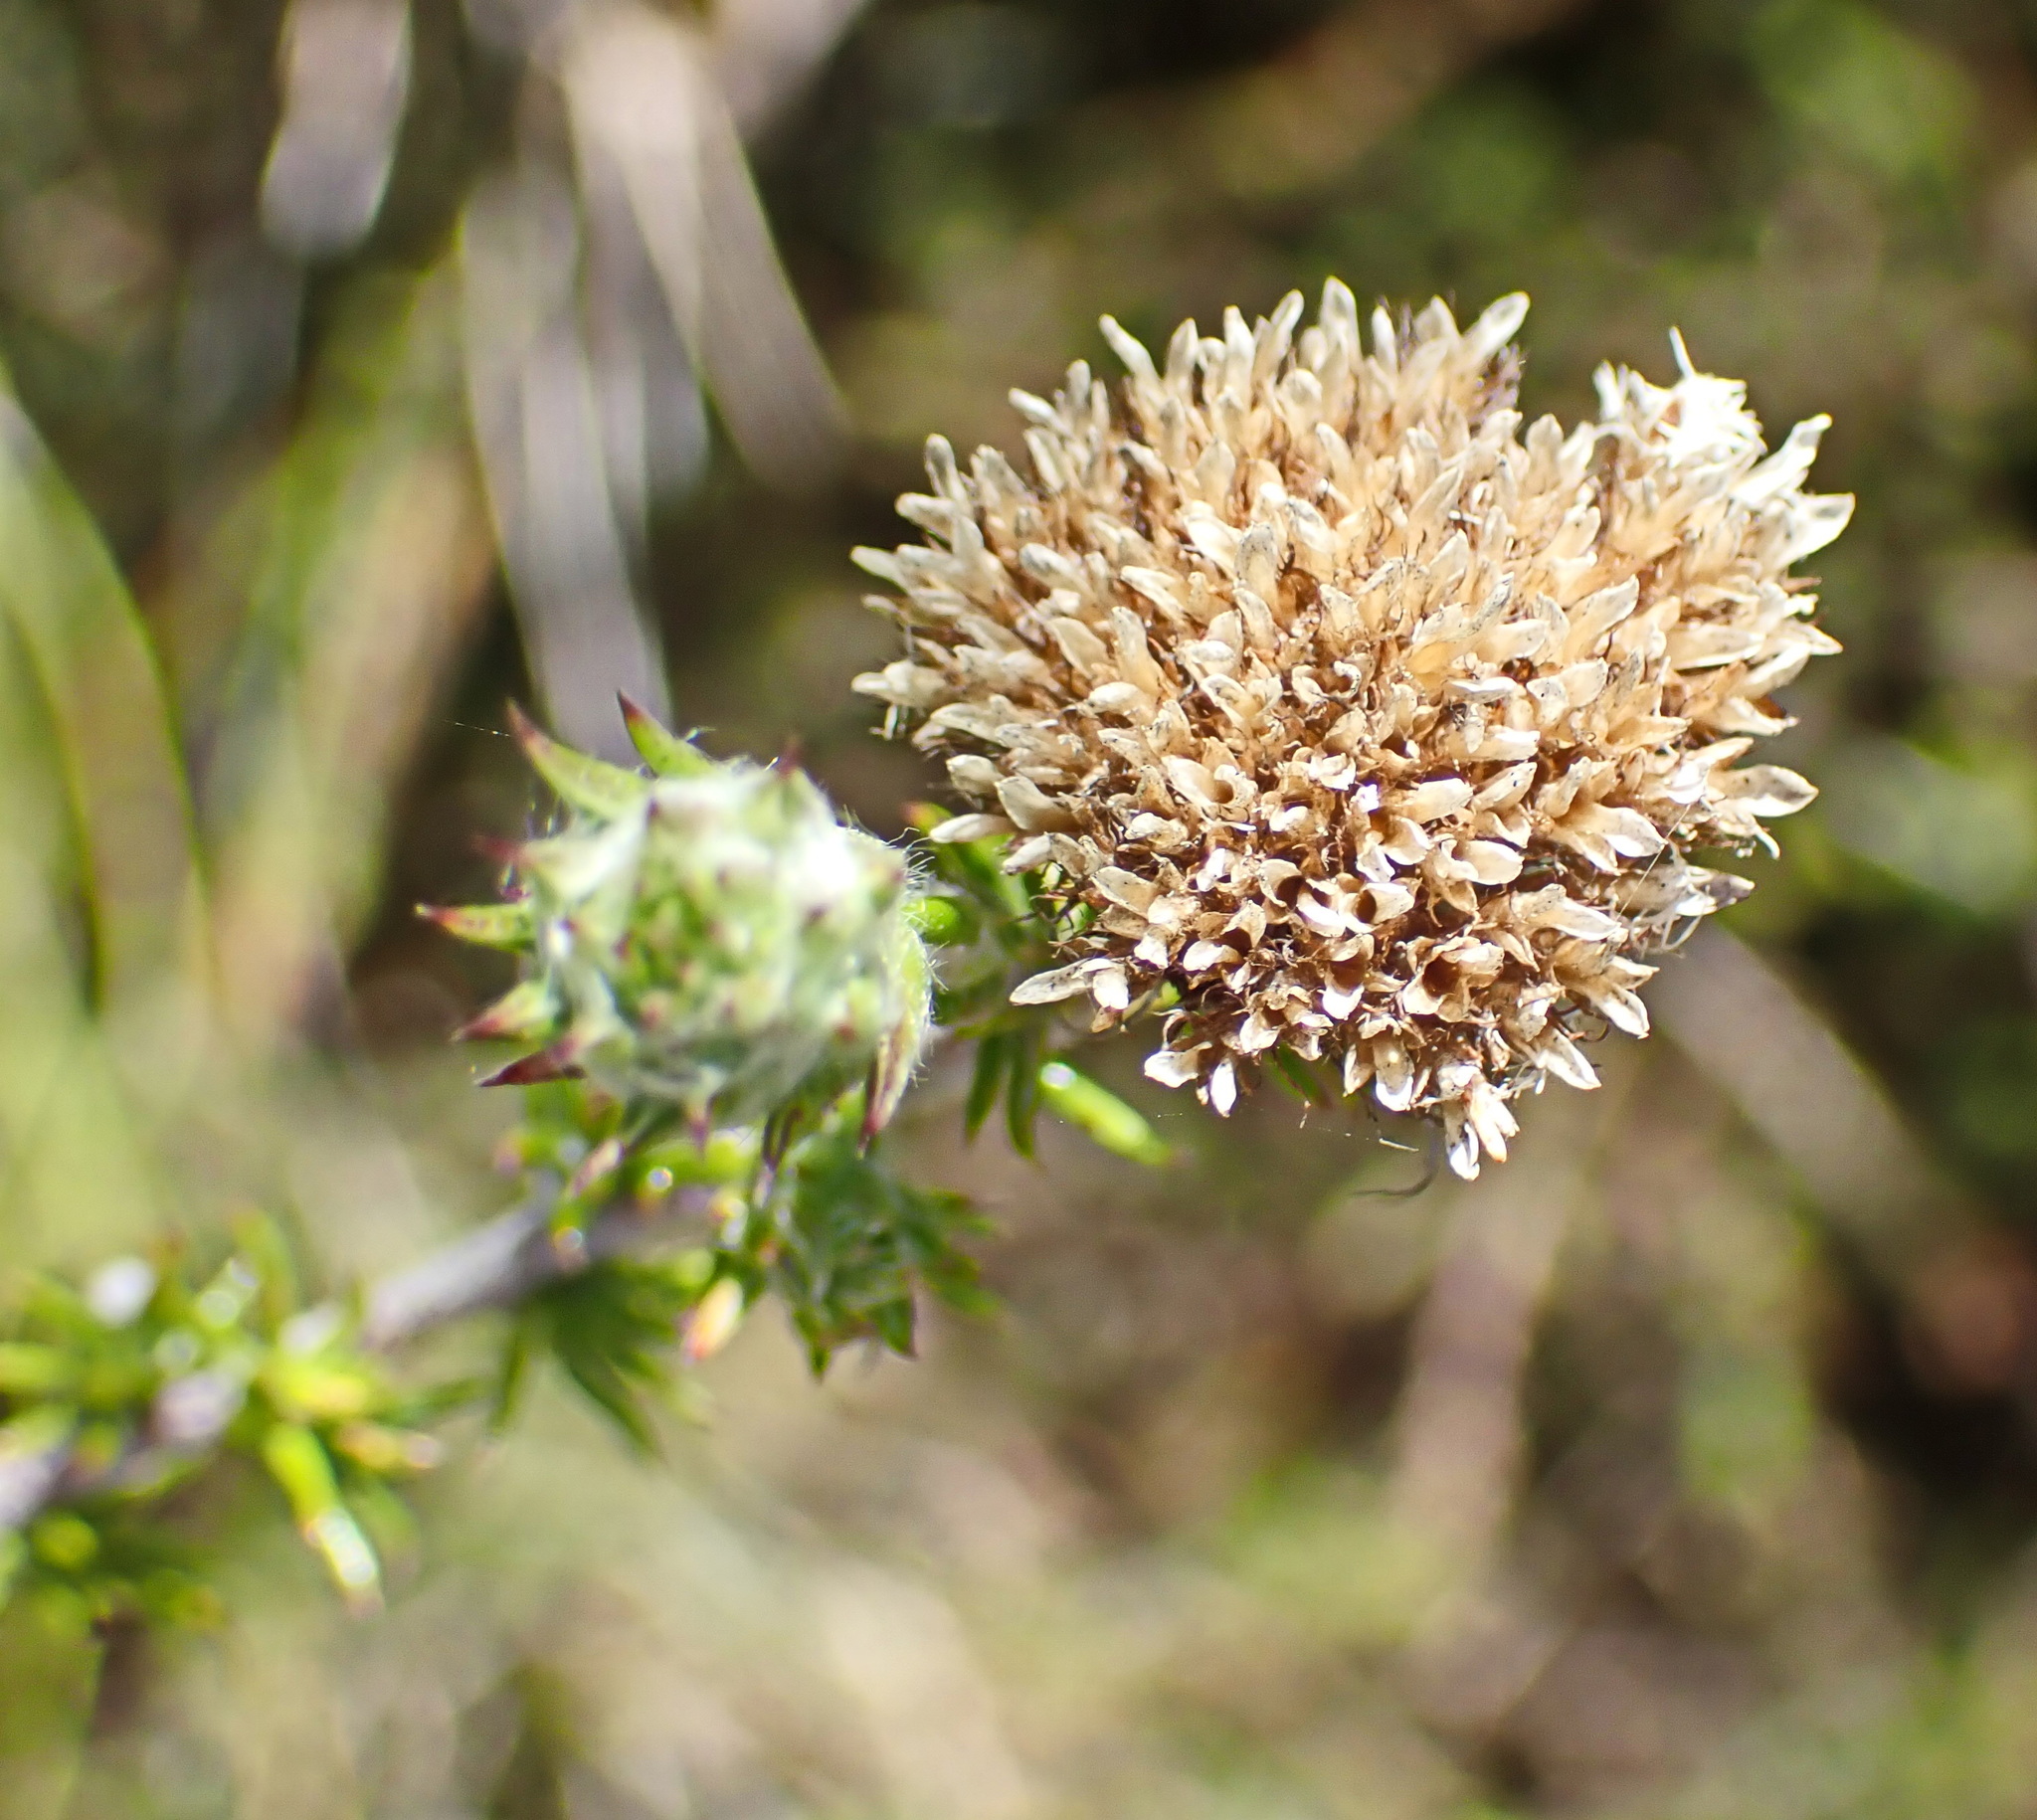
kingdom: Plantae
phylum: Tracheophyta
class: Magnoliopsida
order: Asterales
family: Asteraceae
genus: Metalasia
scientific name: Metalasia pungens
